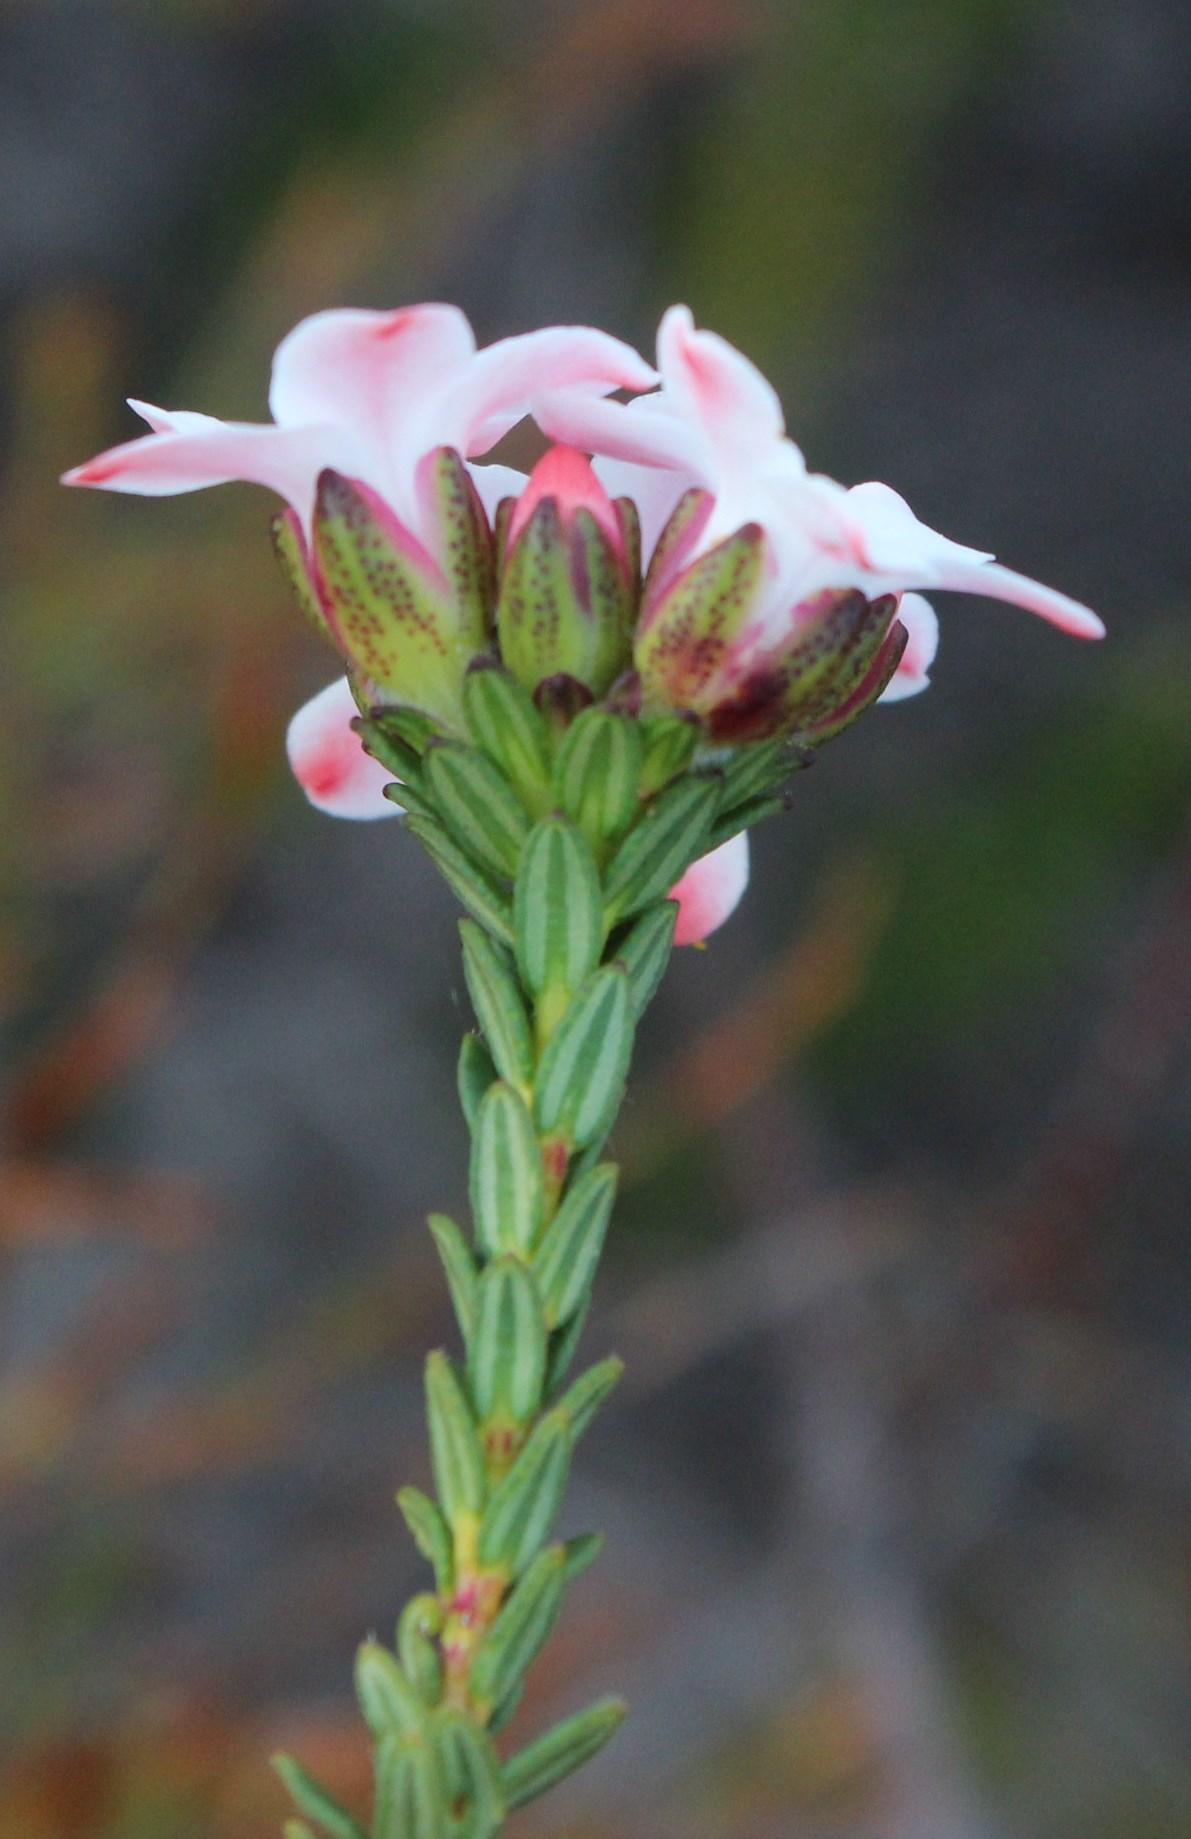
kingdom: Plantae
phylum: Tracheophyta
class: Magnoliopsida
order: Sapindales
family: Rutaceae
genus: Adenandra
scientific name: Adenandra viscida
